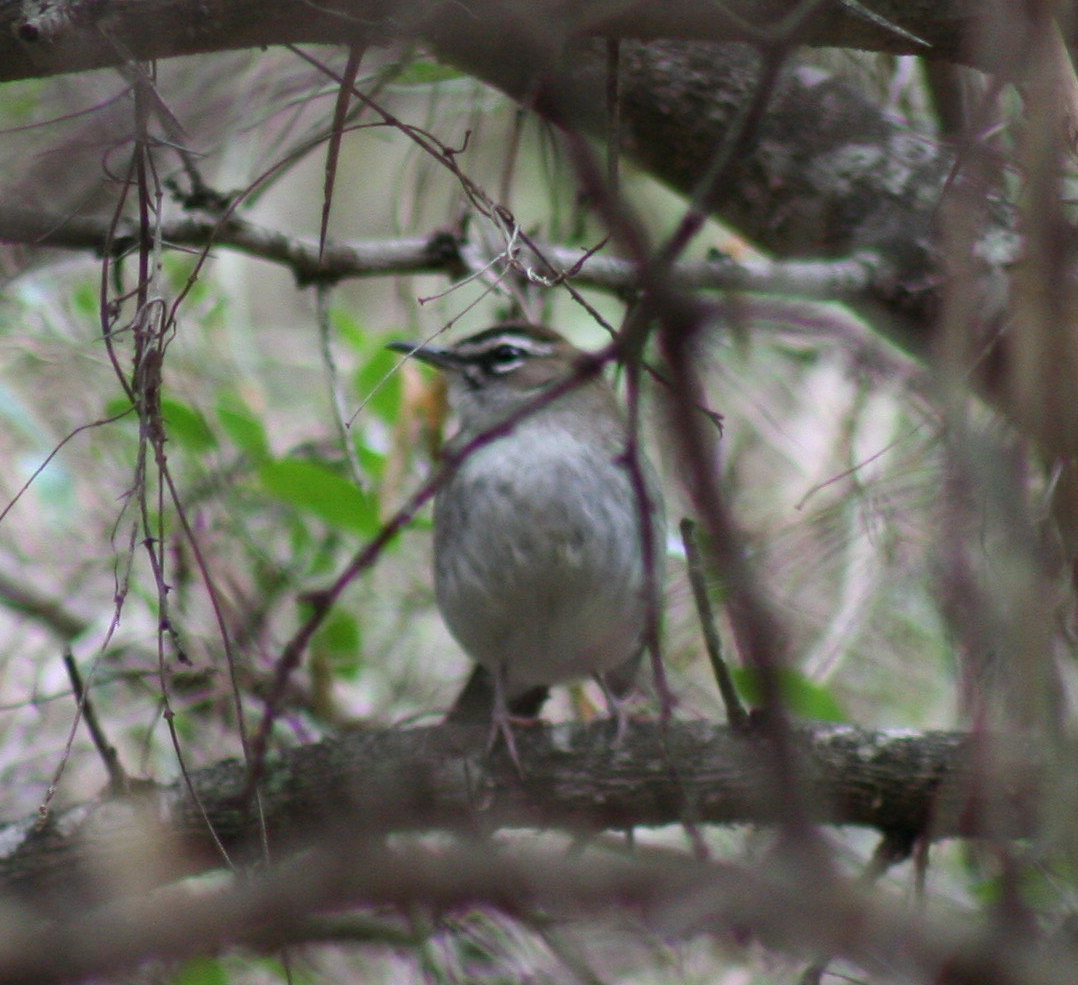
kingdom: Animalia
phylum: Chordata
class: Aves
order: Passeriformes
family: Muscicapidae
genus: Erythropygia
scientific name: Erythropygia signata
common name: Brown scrub robin
